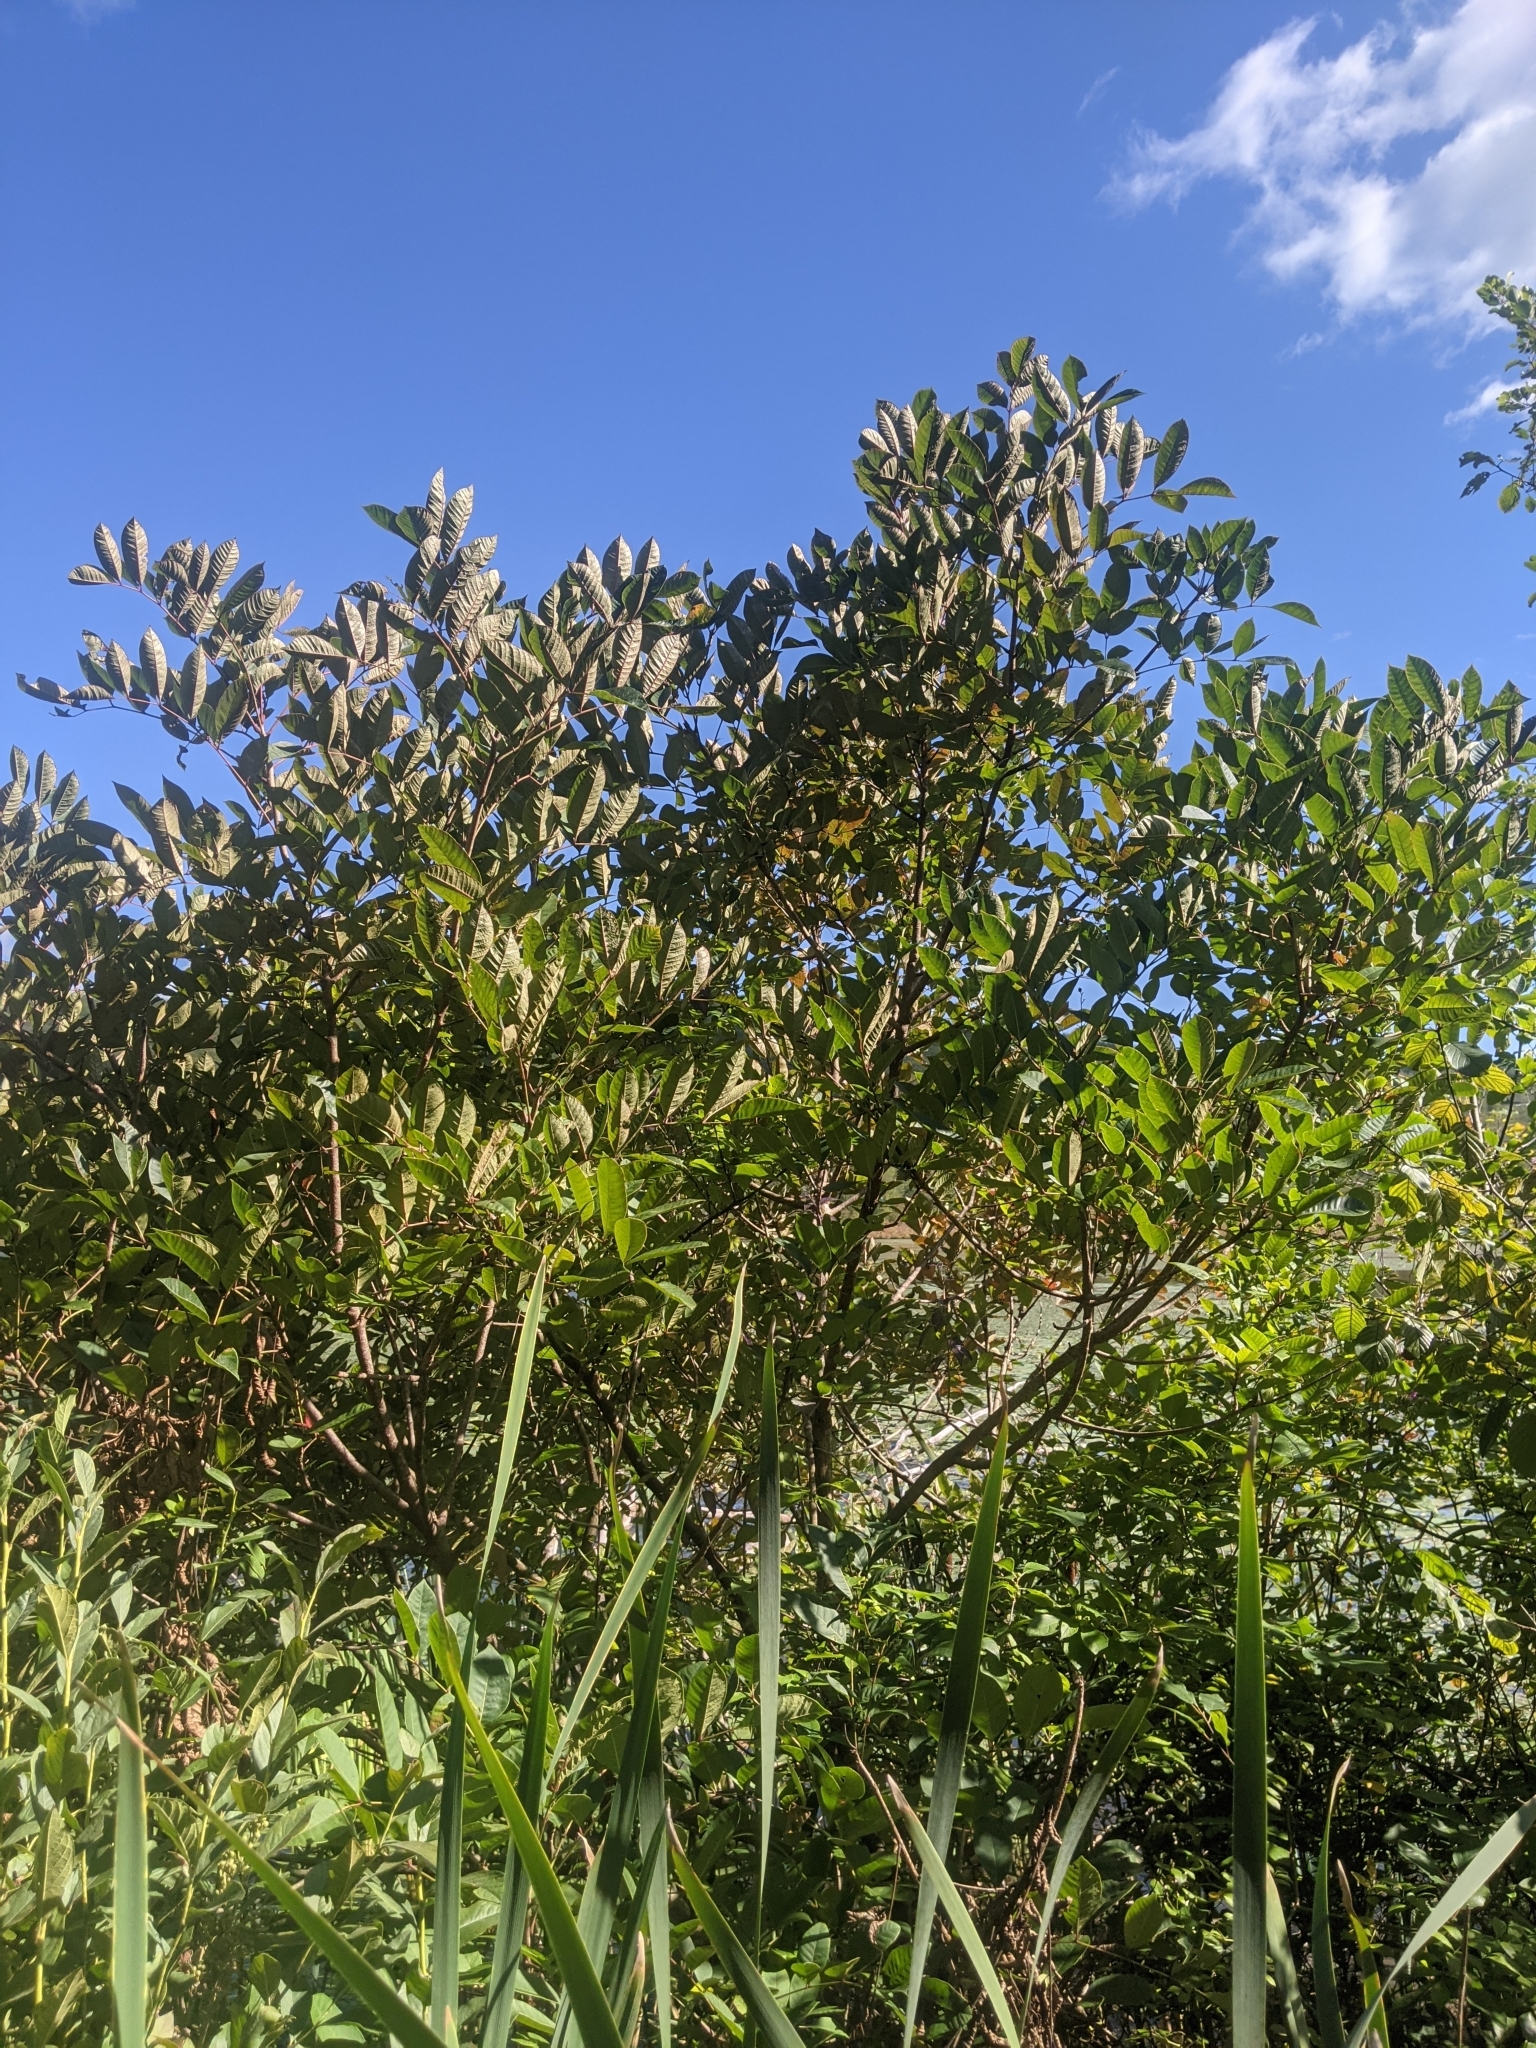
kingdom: Plantae
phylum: Tracheophyta
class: Magnoliopsida
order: Sapindales
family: Anacardiaceae
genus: Toxicodendron
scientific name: Toxicodendron vernix
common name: Poison sumac
